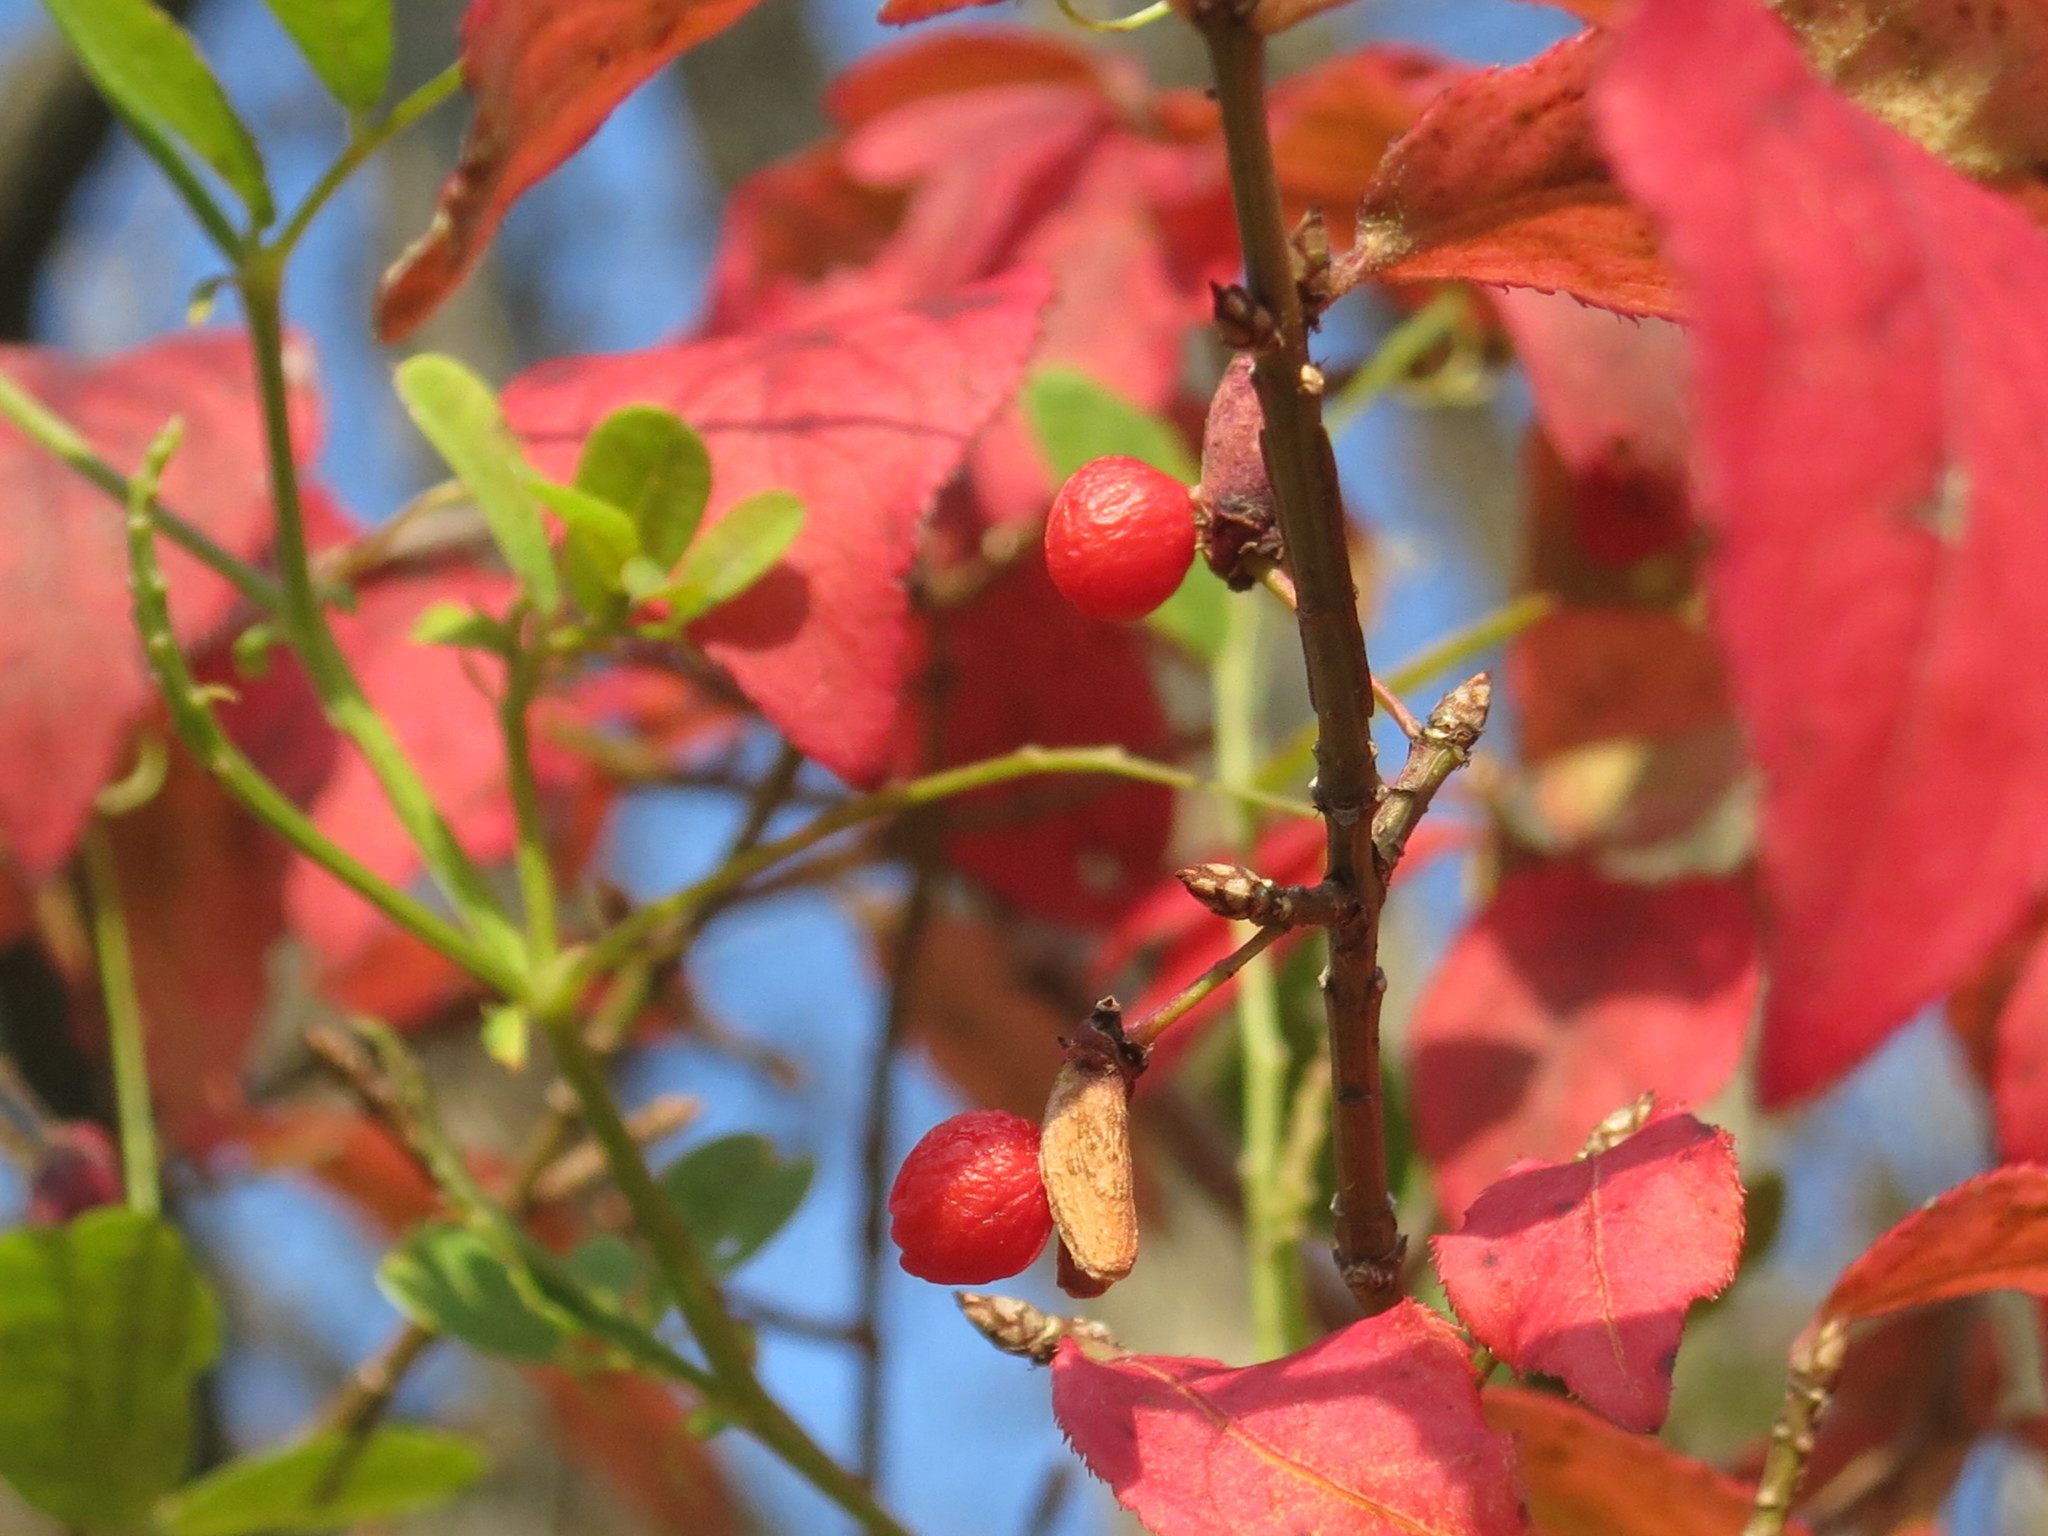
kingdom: Plantae
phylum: Tracheophyta
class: Magnoliopsida
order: Celastrales
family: Celastraceae
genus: Euonymus
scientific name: Euonymus alatus
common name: Winged euonymus
